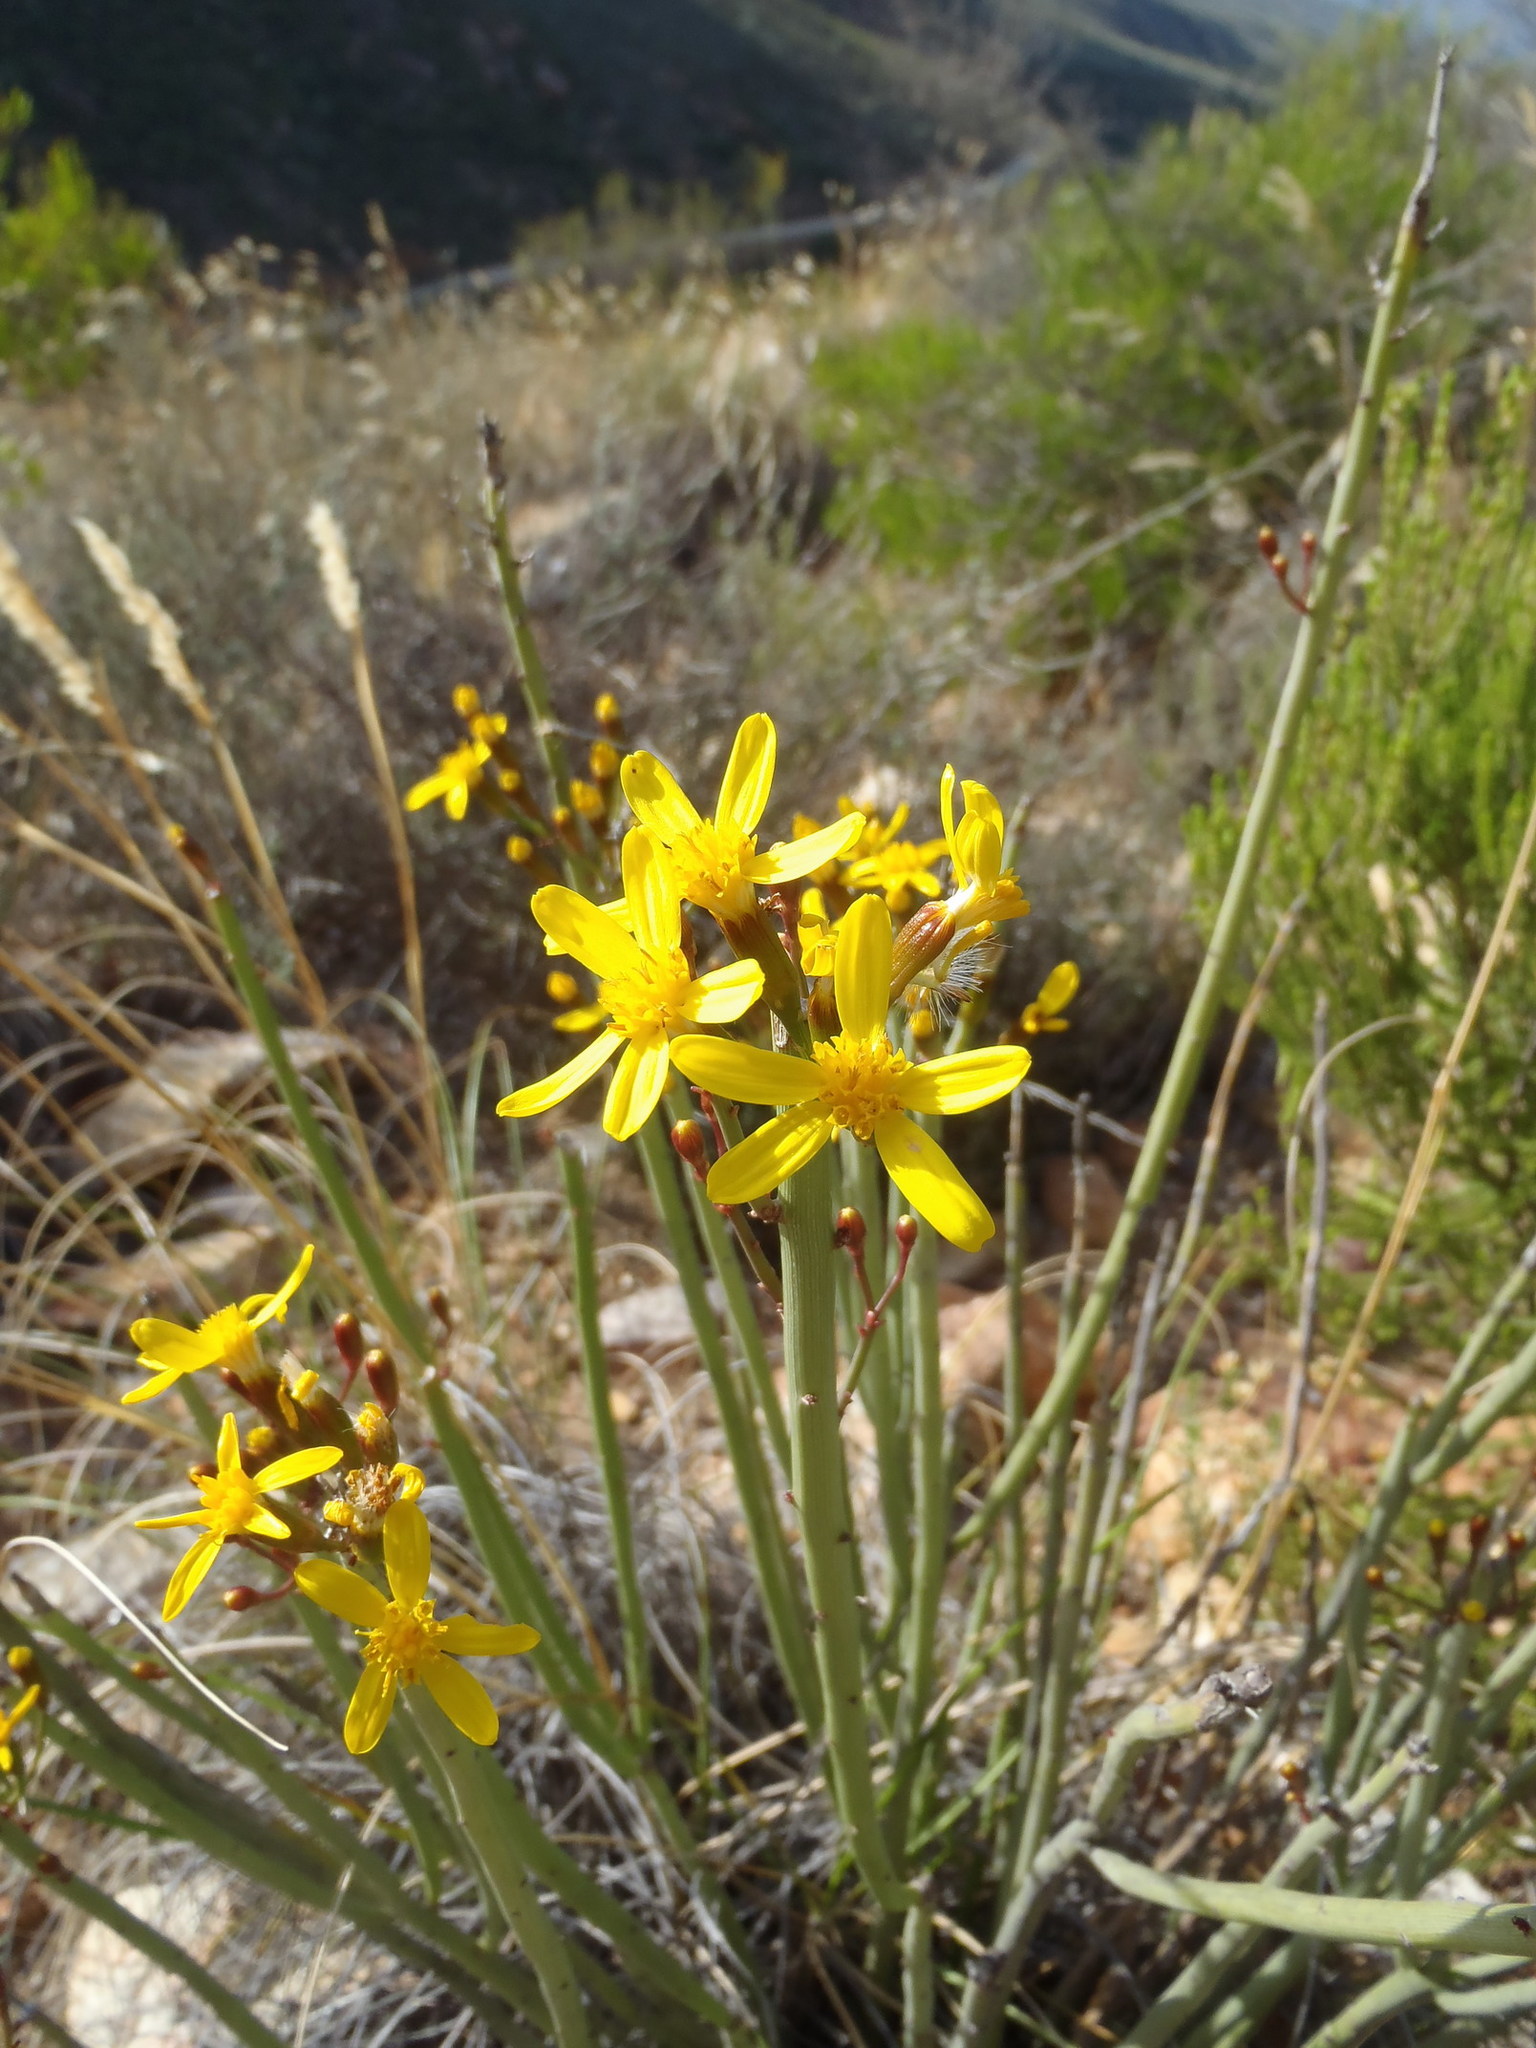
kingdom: Plantae
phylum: Tracheophyta
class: Magnoliopsida
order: Asterales
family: Asteraceae
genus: Senecio
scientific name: Senecio junceus
